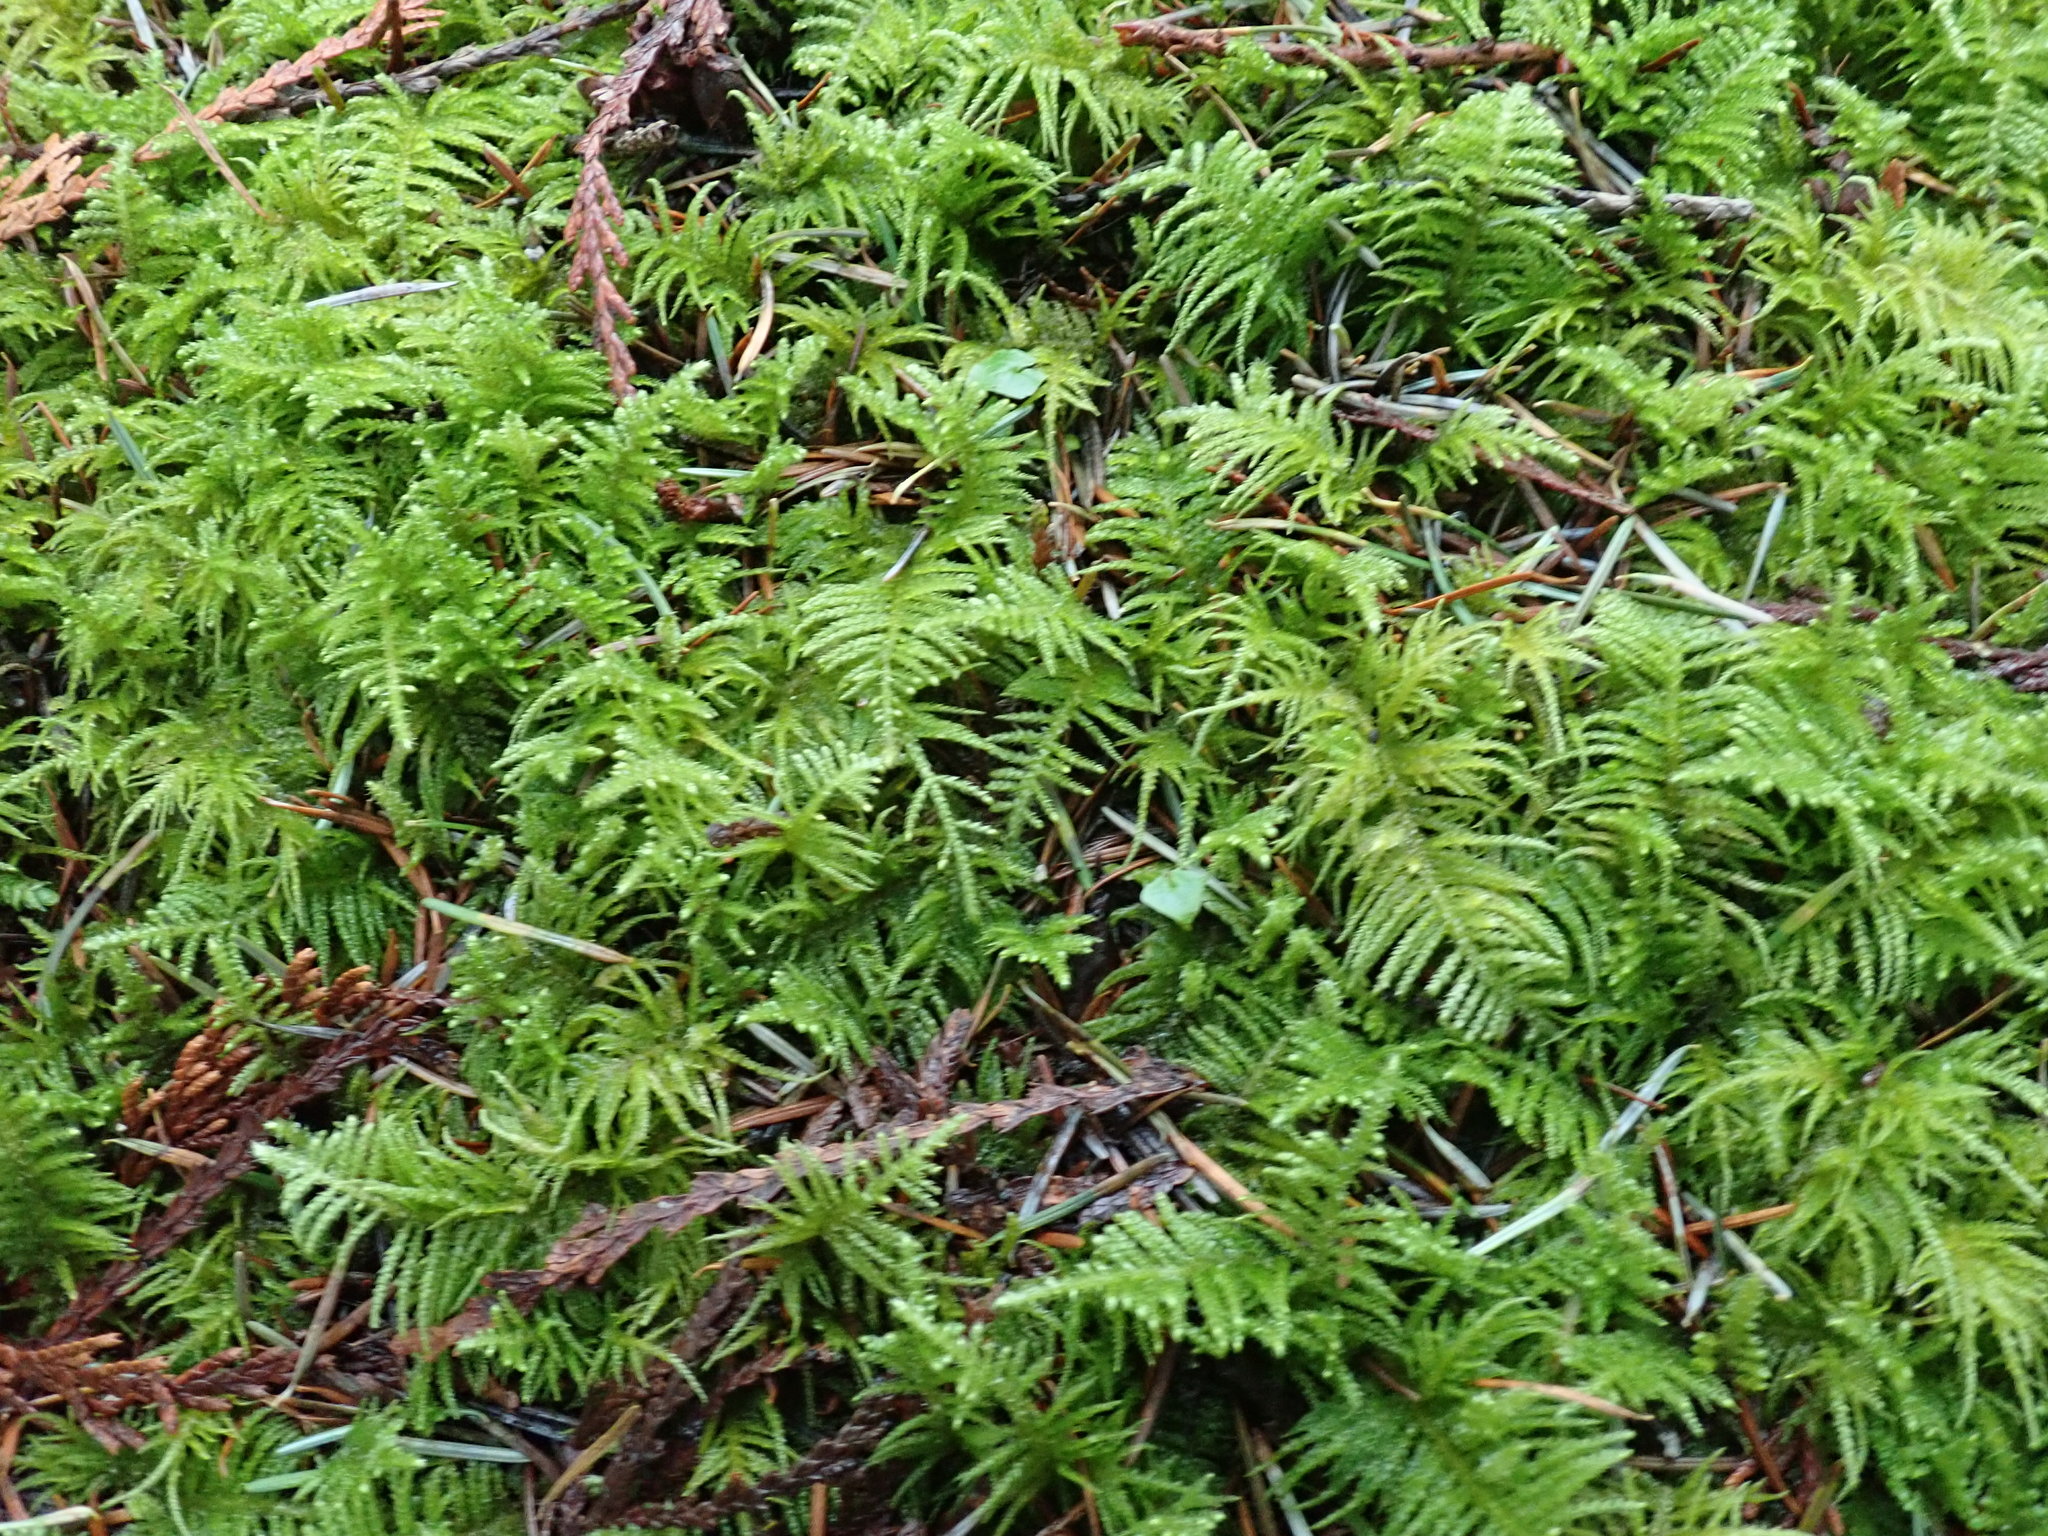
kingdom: Plantae
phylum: Bryophyta
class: Bryopsida
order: Hypnales
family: Brachytheciaceae
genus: Kindbergia
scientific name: Kindbergia oregana
